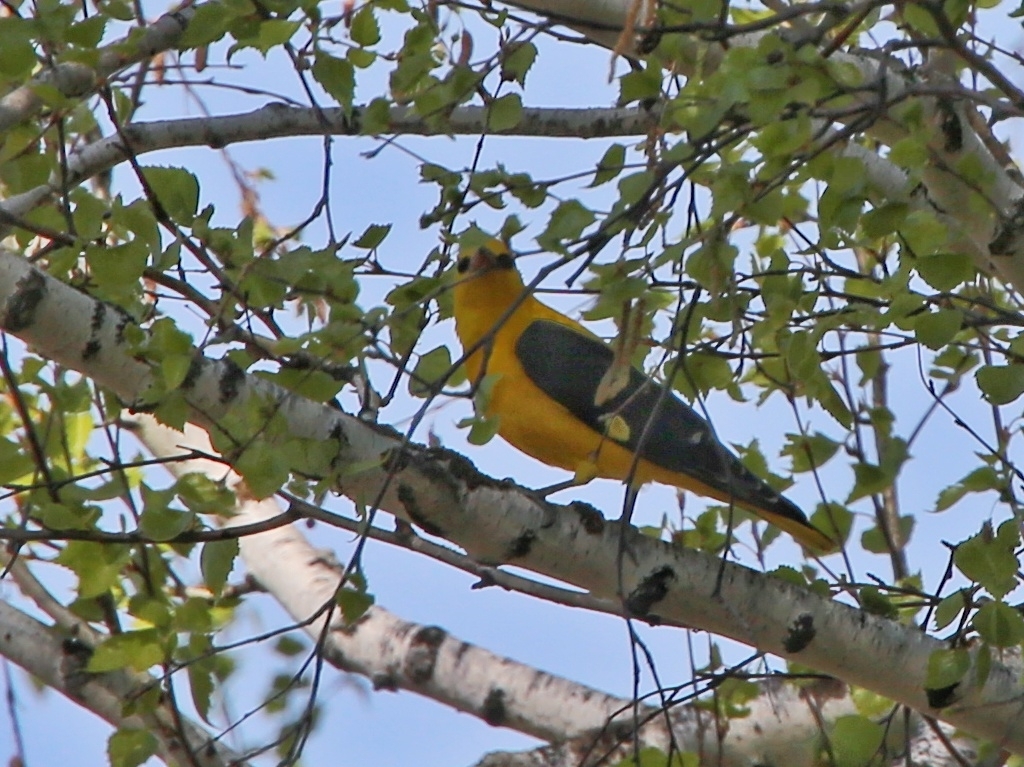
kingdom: Animalia
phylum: Chordata
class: Aves
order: Passeriformes
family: Oriolidae
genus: Oriolus
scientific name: Oriolus oriolus
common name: Eurasian golden oriole
